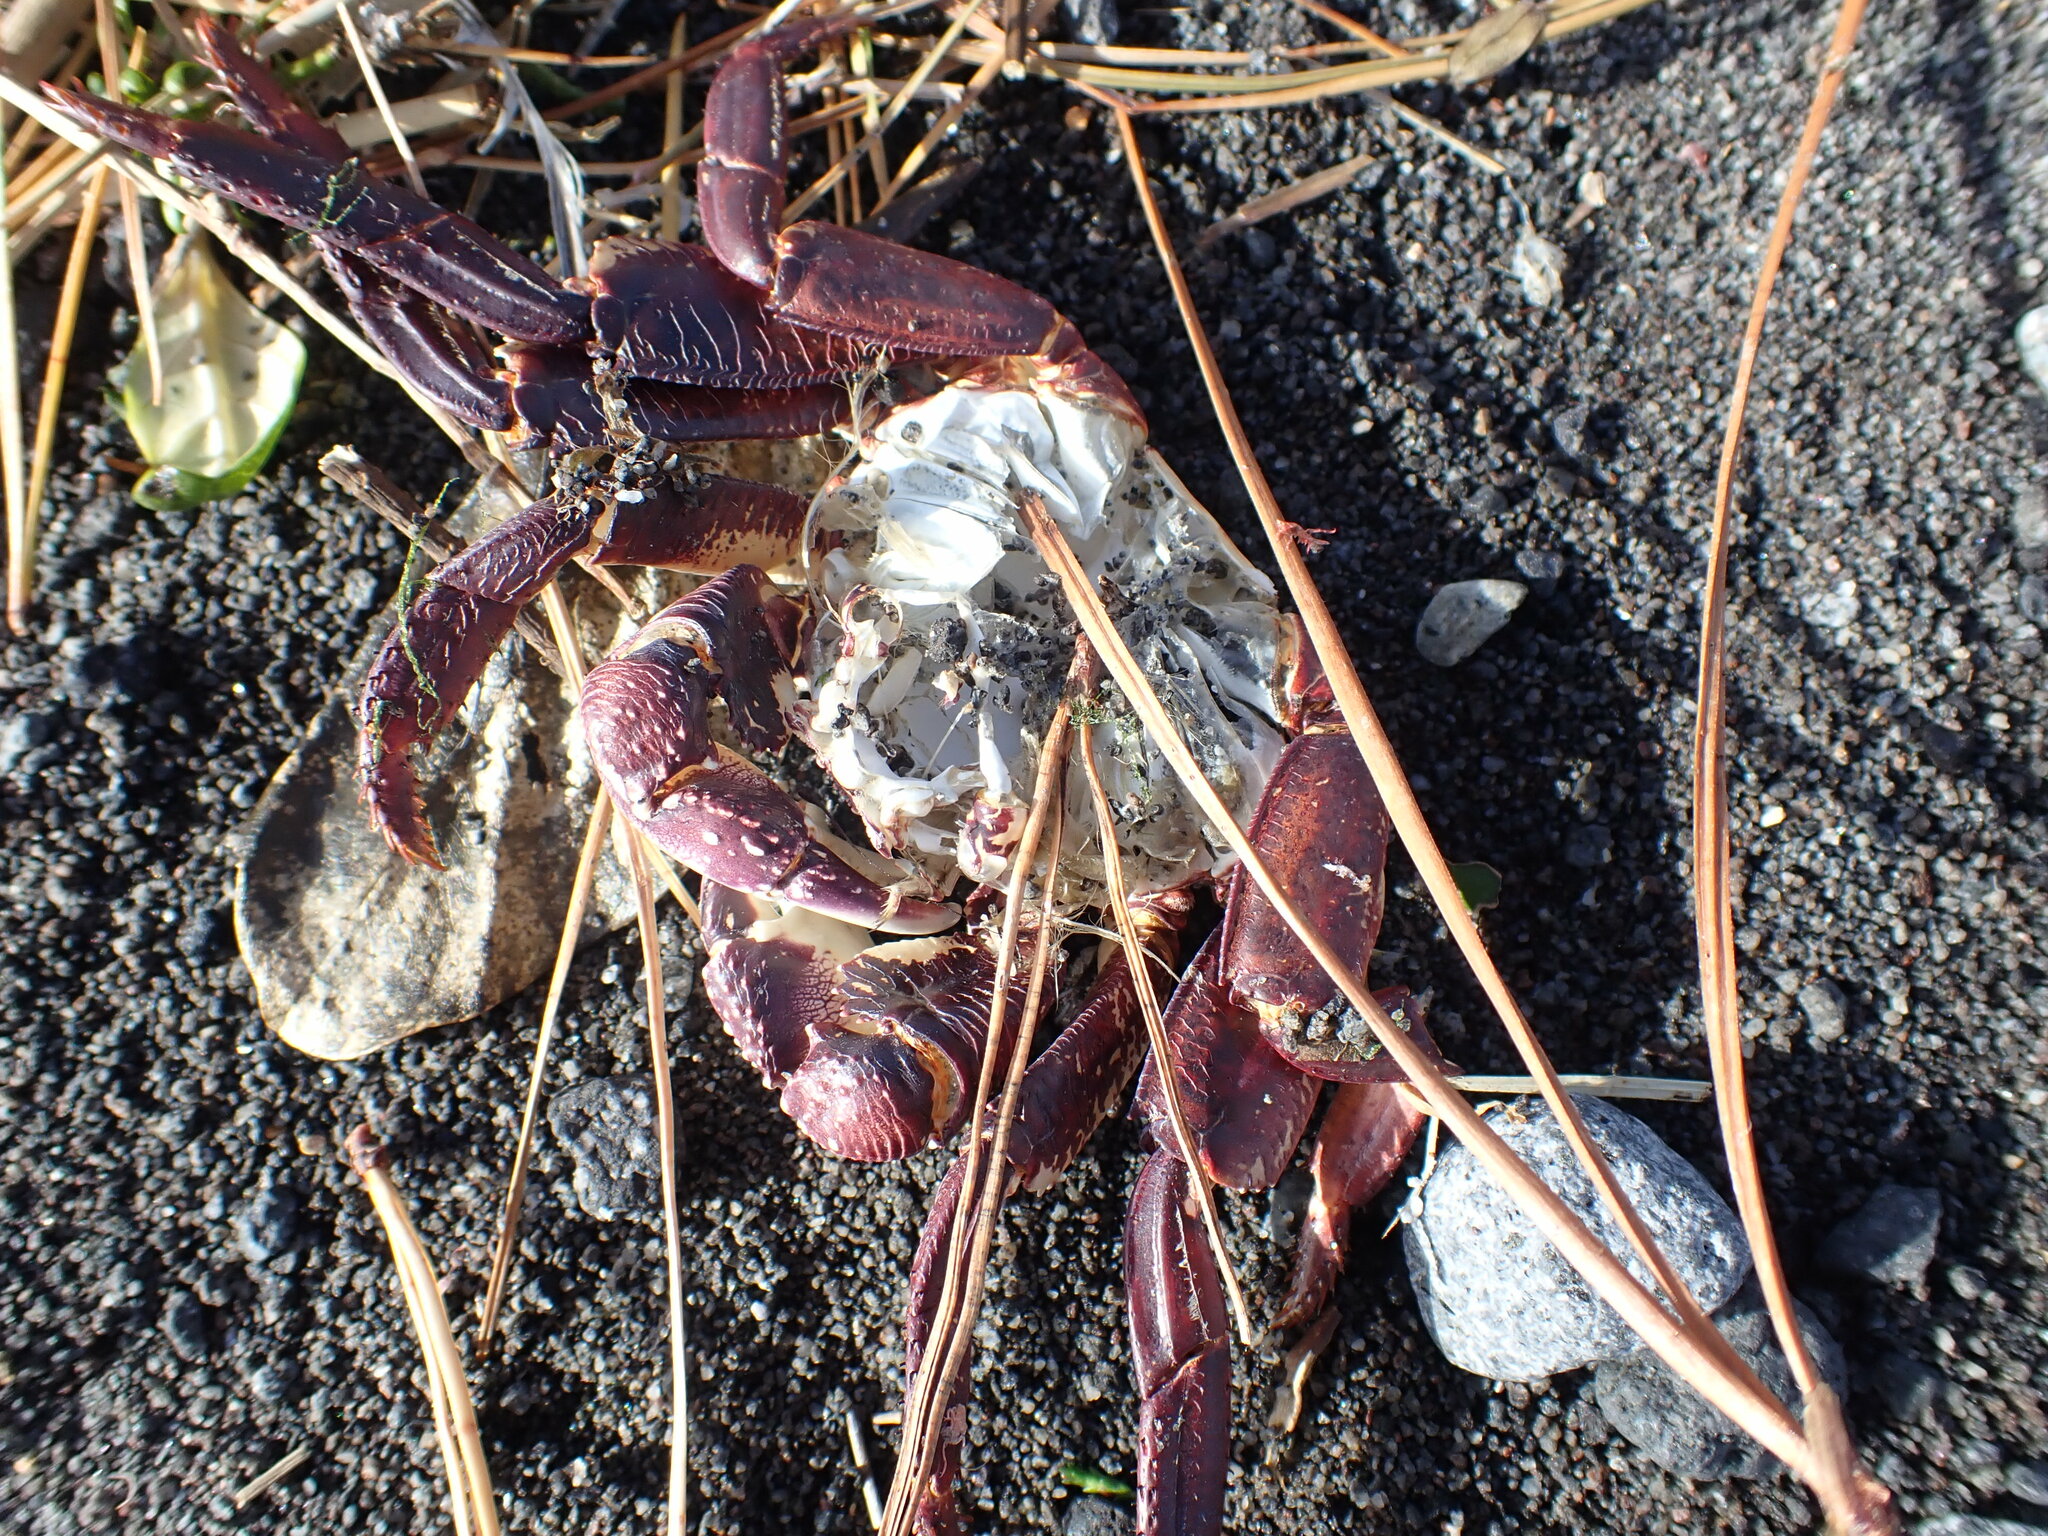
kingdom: Animalia
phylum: Arthropoda
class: Malacostraca
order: Decapoda
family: Grapsidae
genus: Leptograpsus
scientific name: Leptograpsus variegatus
